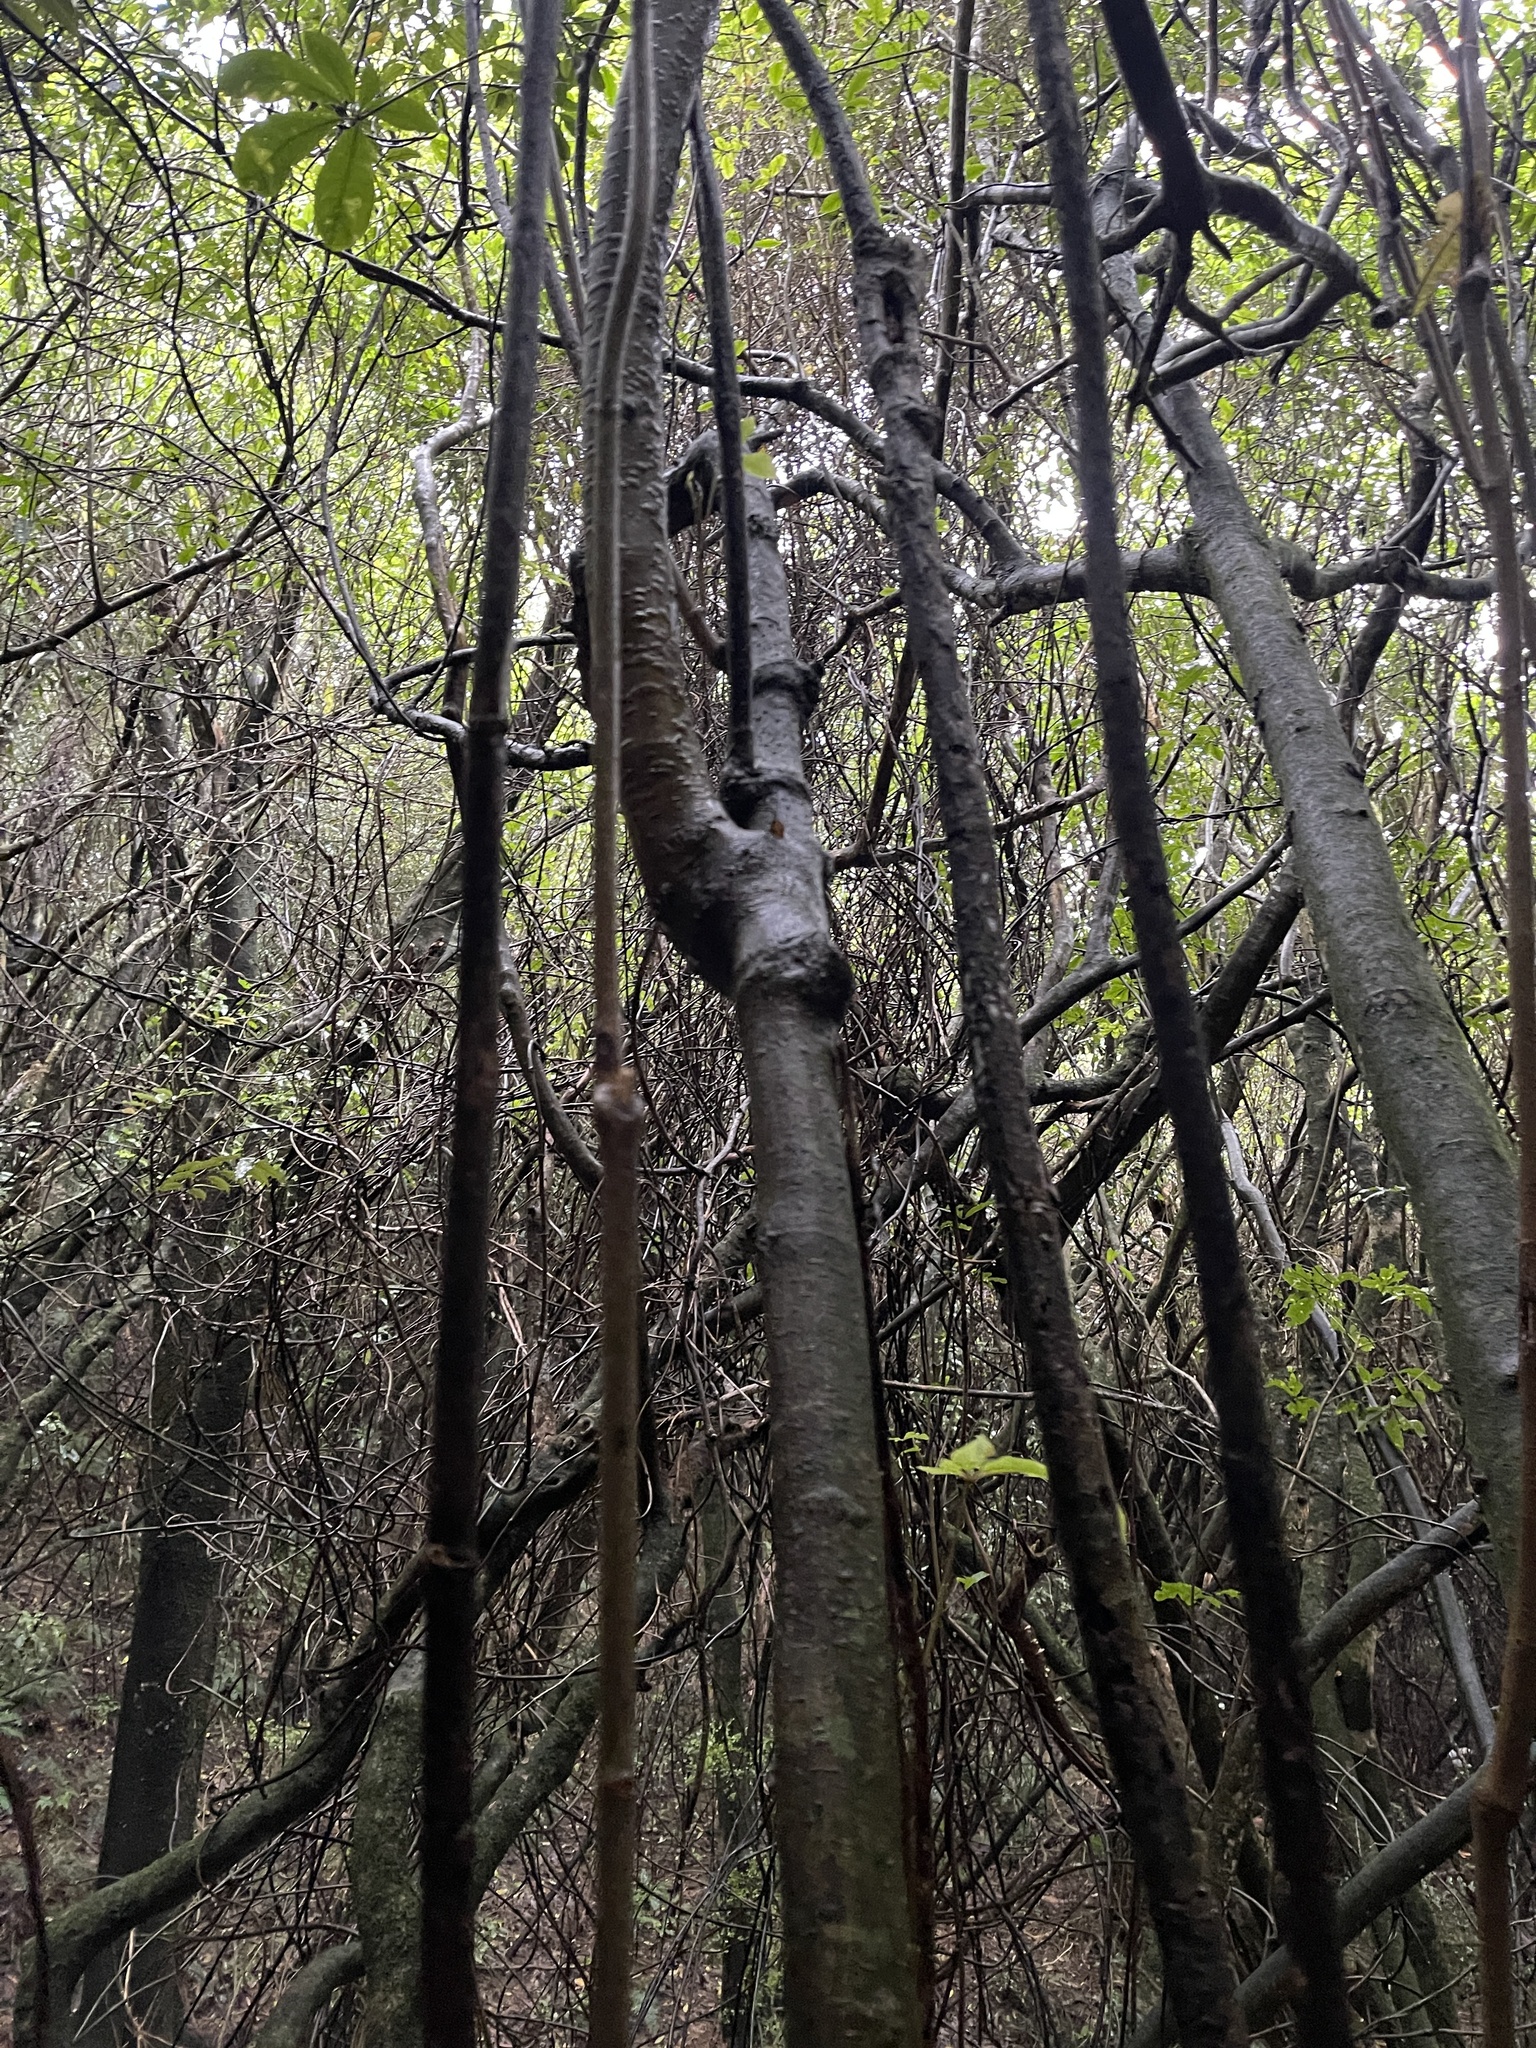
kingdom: Plantae
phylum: Tracheophyta
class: Magnoliopsida
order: Apiales
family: Araliaceae
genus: Schefflera
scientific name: Schefflera digitata
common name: Pate
